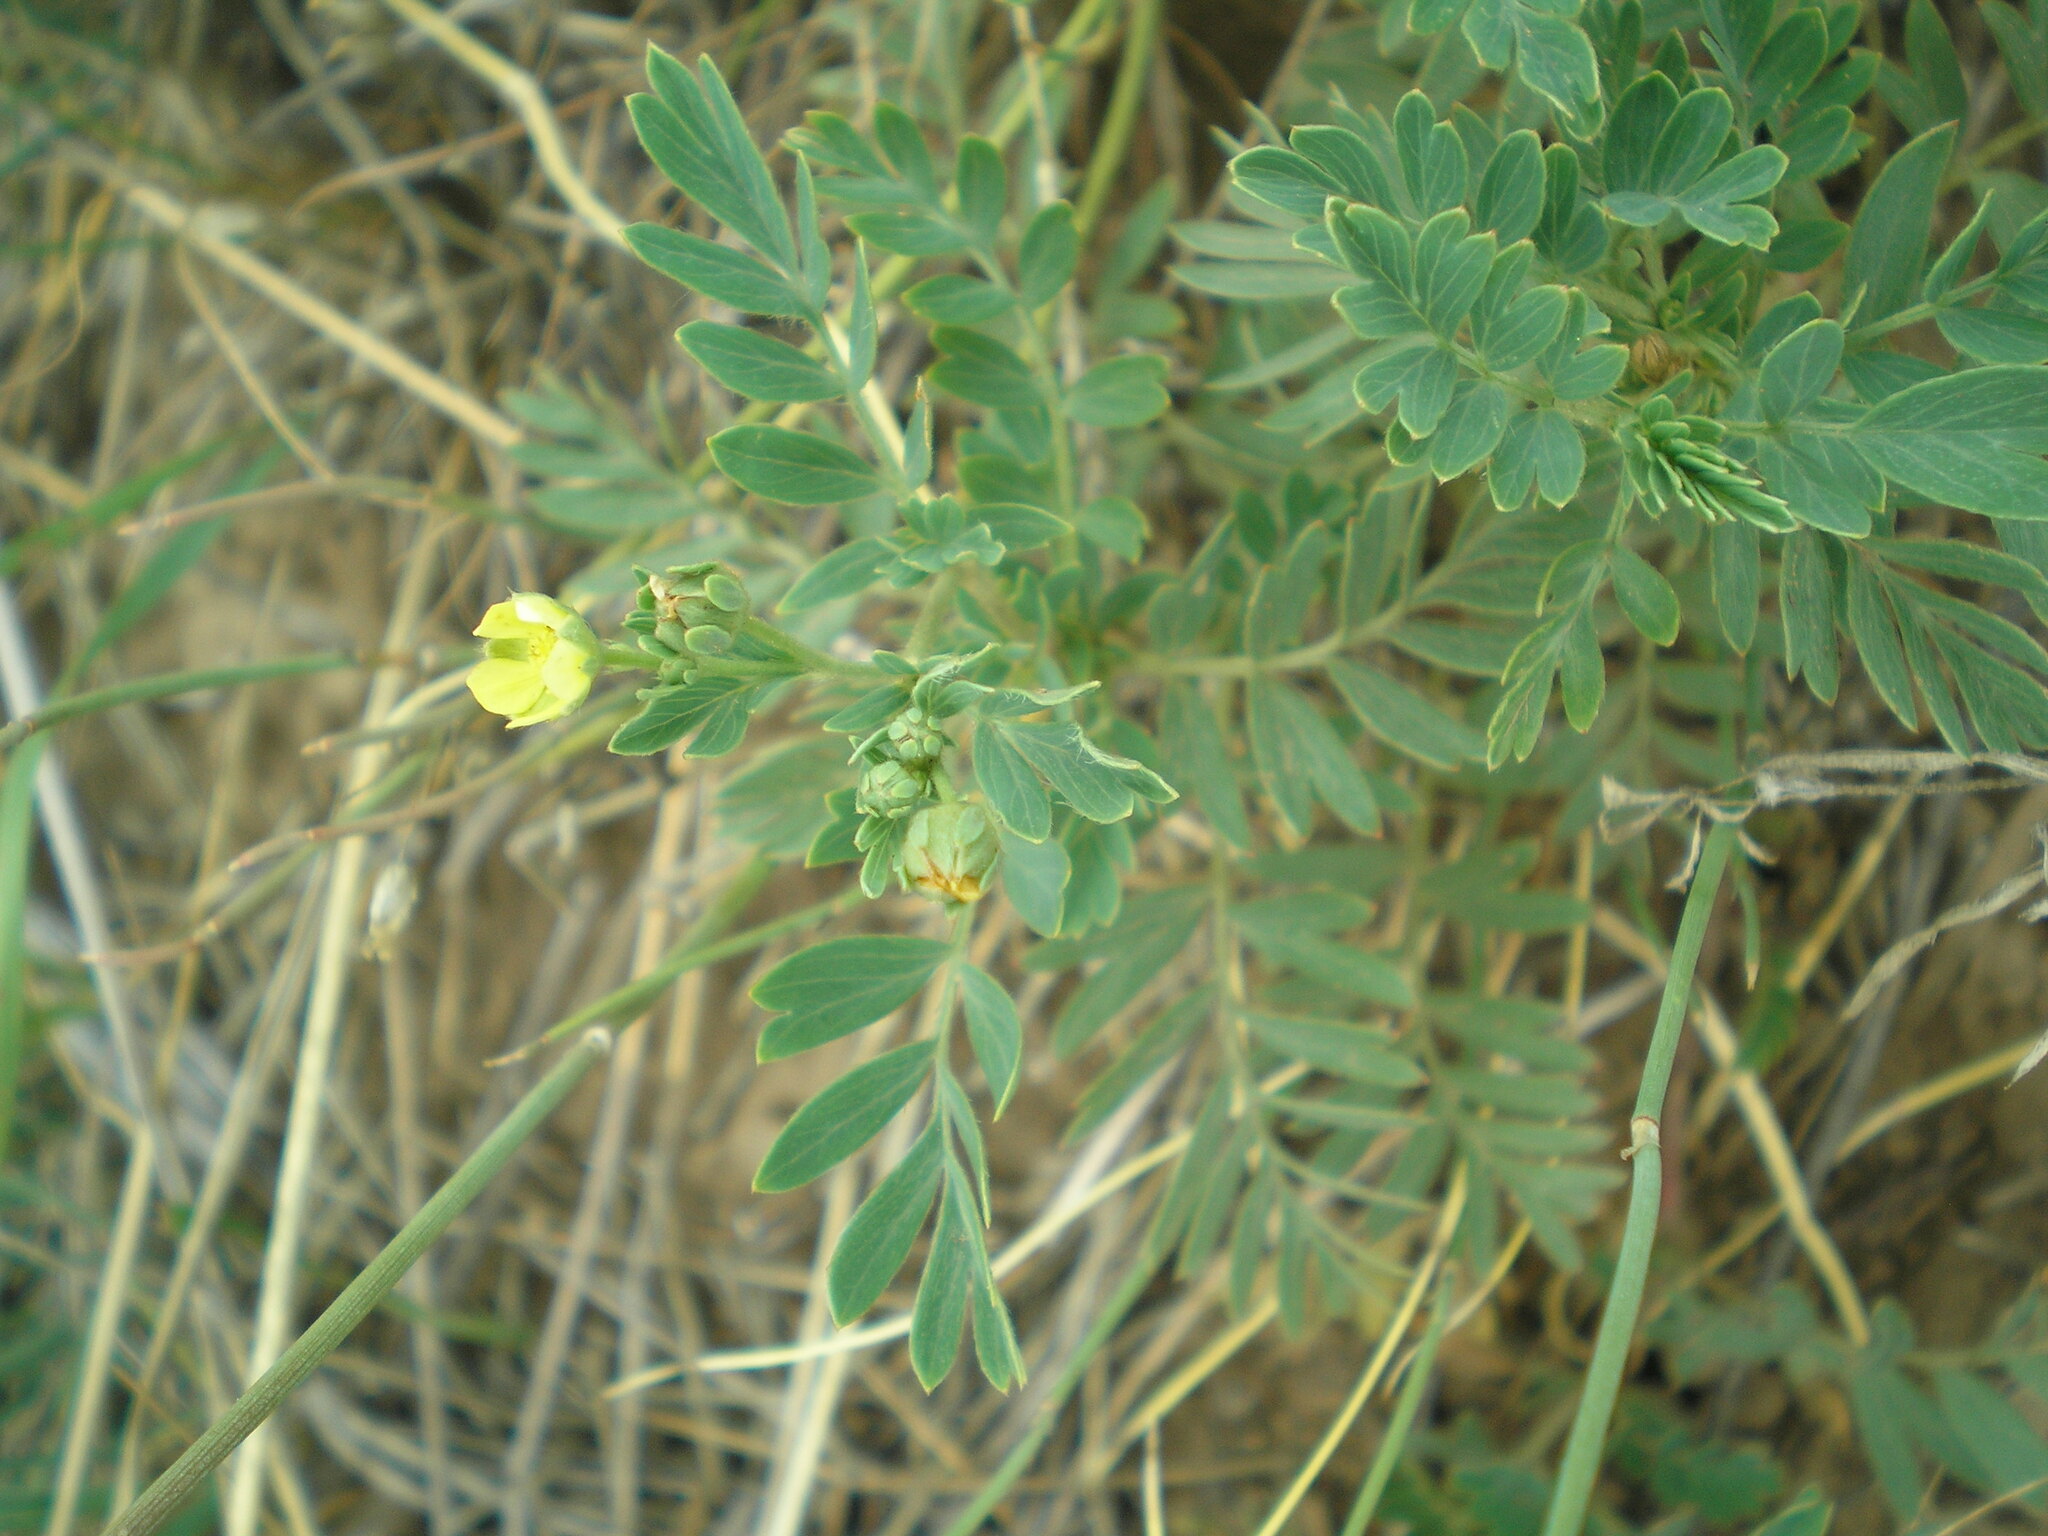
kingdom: Plantae
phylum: Tracheophyta
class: Magnoliopsida
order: Rosales
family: Rosaceae
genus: Sibbaldianthe
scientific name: Sibbaldianthe bifurca
